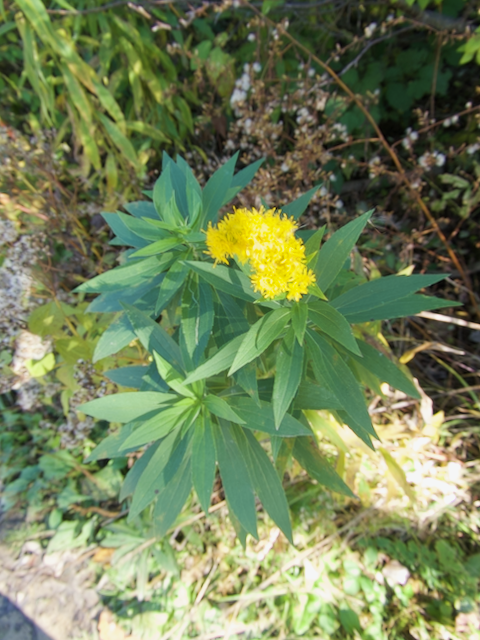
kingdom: Plantae
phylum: Tracheophyta
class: Magnoliopsida
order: Asterales
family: Asteraceae
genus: Solidago
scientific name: Solidago canadensis
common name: Canada goldenrod
